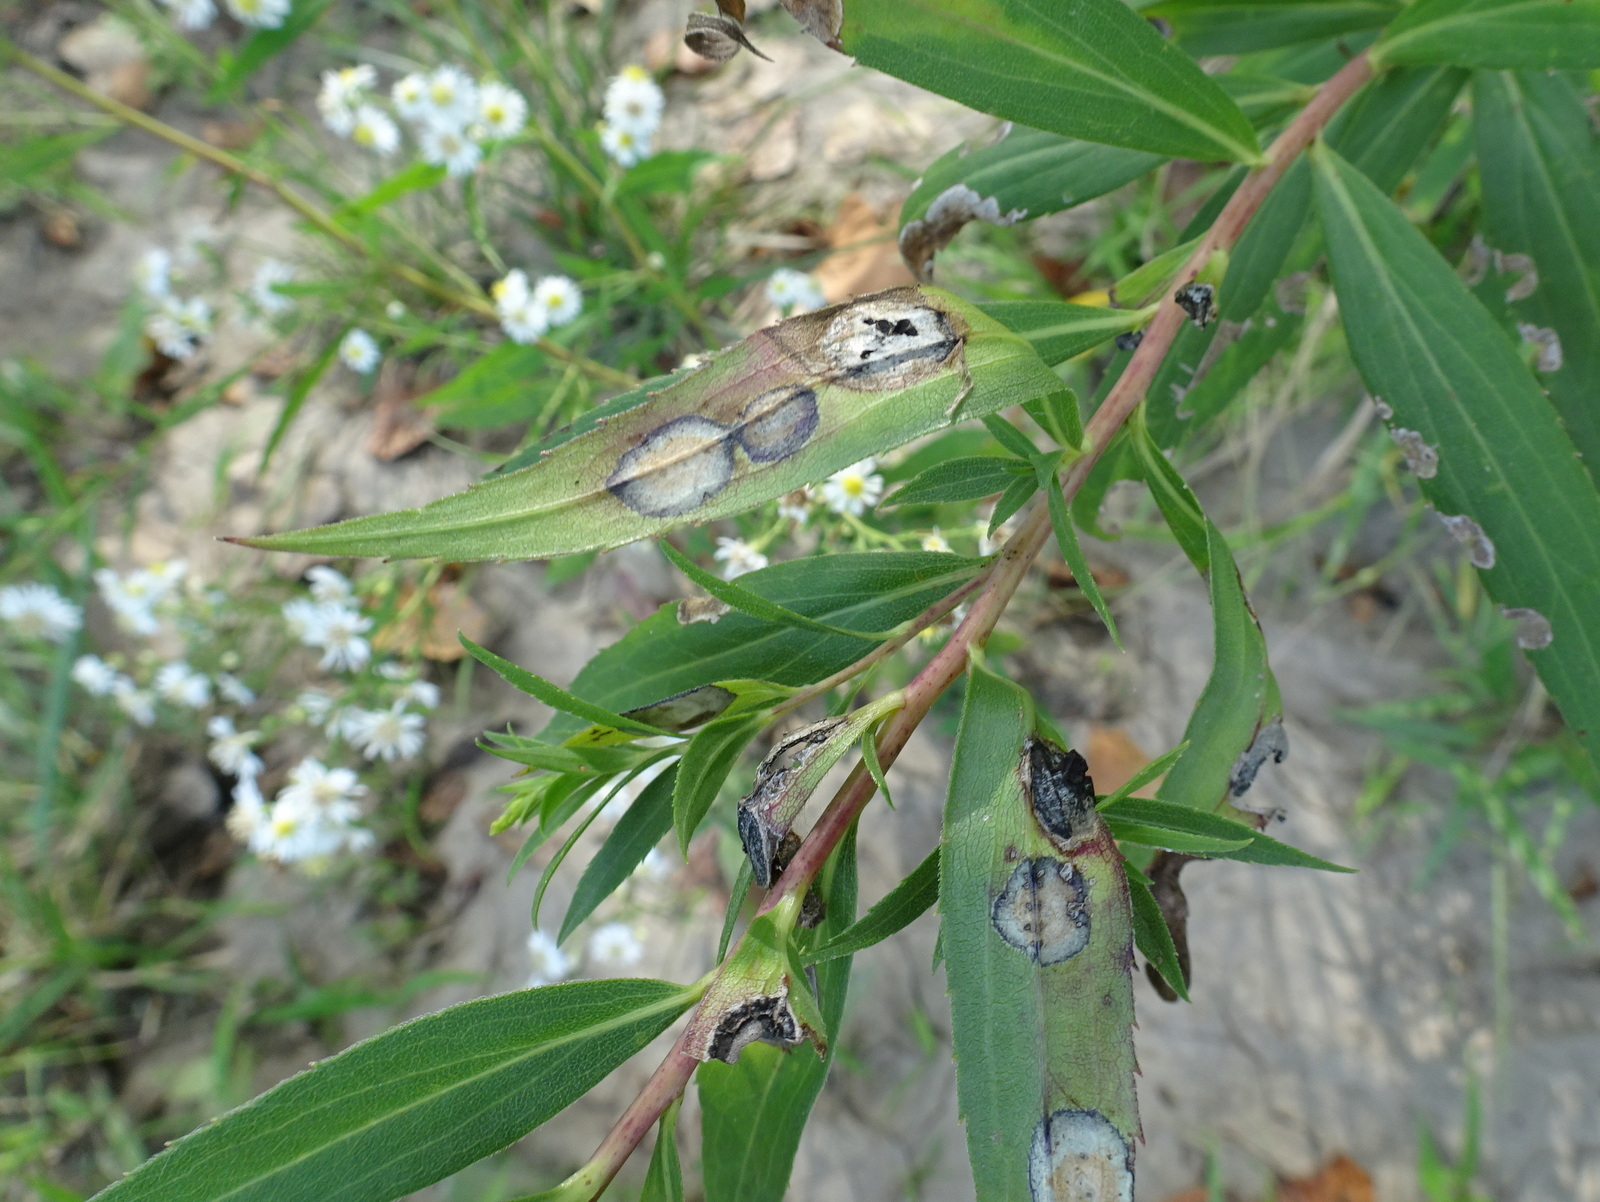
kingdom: Animalia
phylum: Arthropoda
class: Insecta
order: Diptera
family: Cecidomyiidae
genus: Asteromyia
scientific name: Asteromyia carbonifera
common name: Carbonifera goldenrod gall midge
